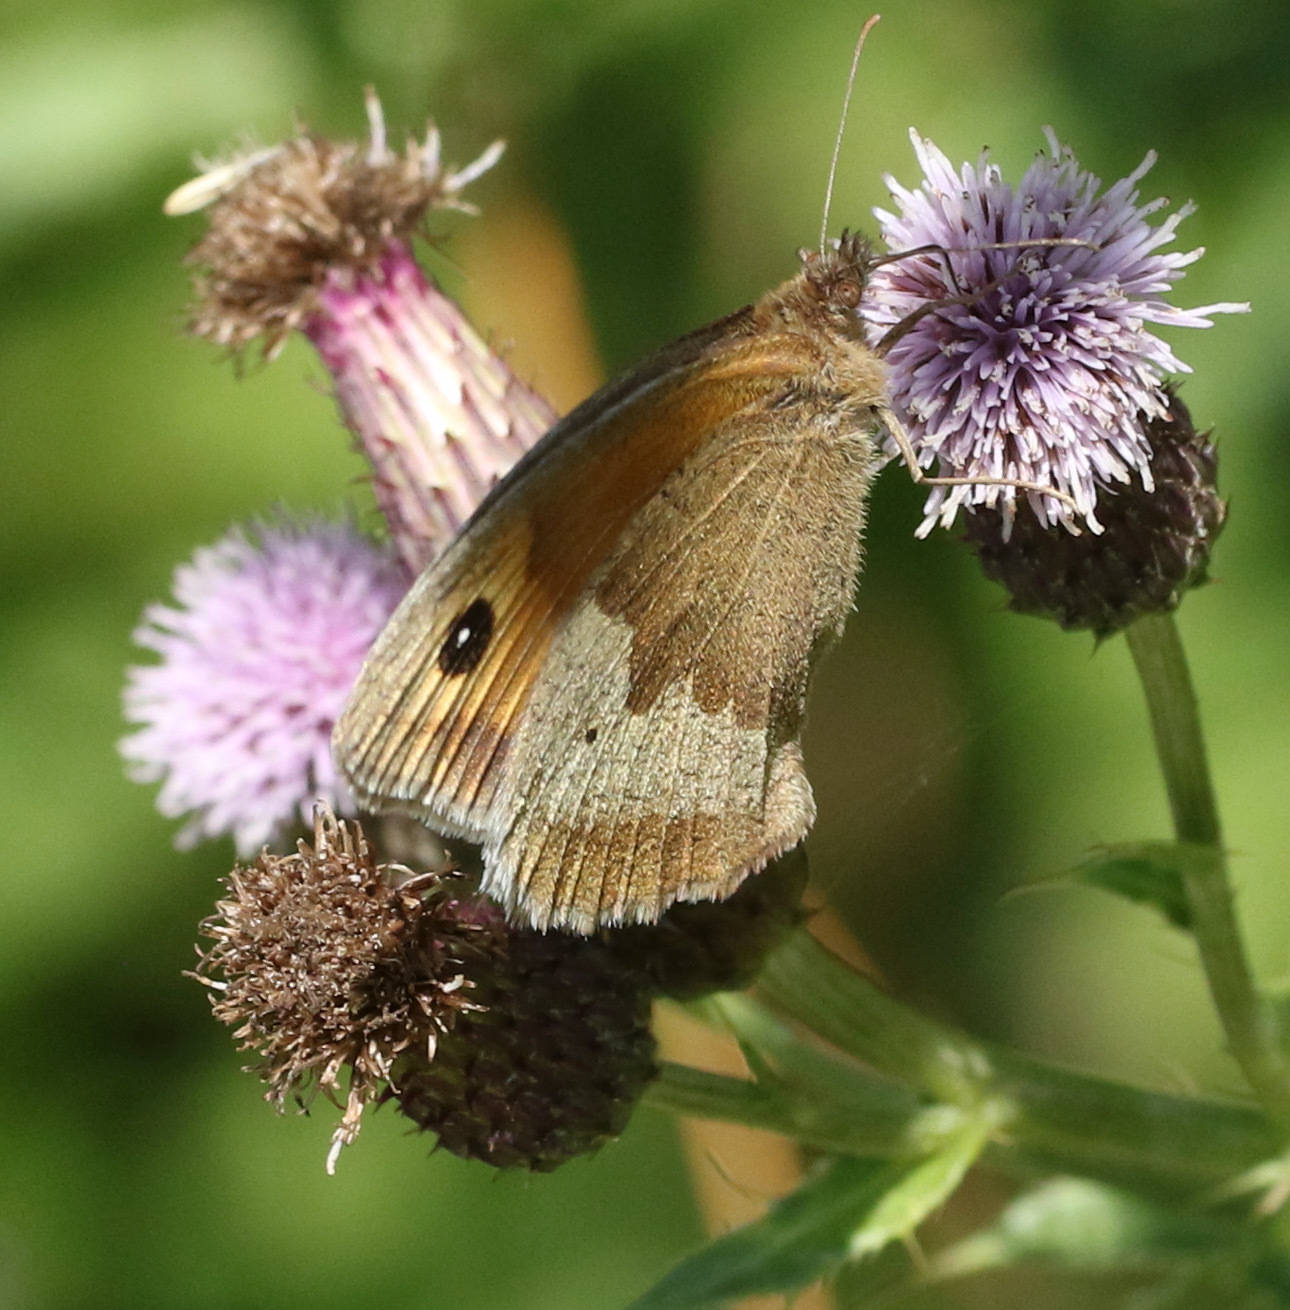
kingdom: Animalia
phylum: Arthropoda
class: Insecta
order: Lepidoptera
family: Nymphalidae
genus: Maniola
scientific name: Maniola jurtina
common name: Meadow brown
